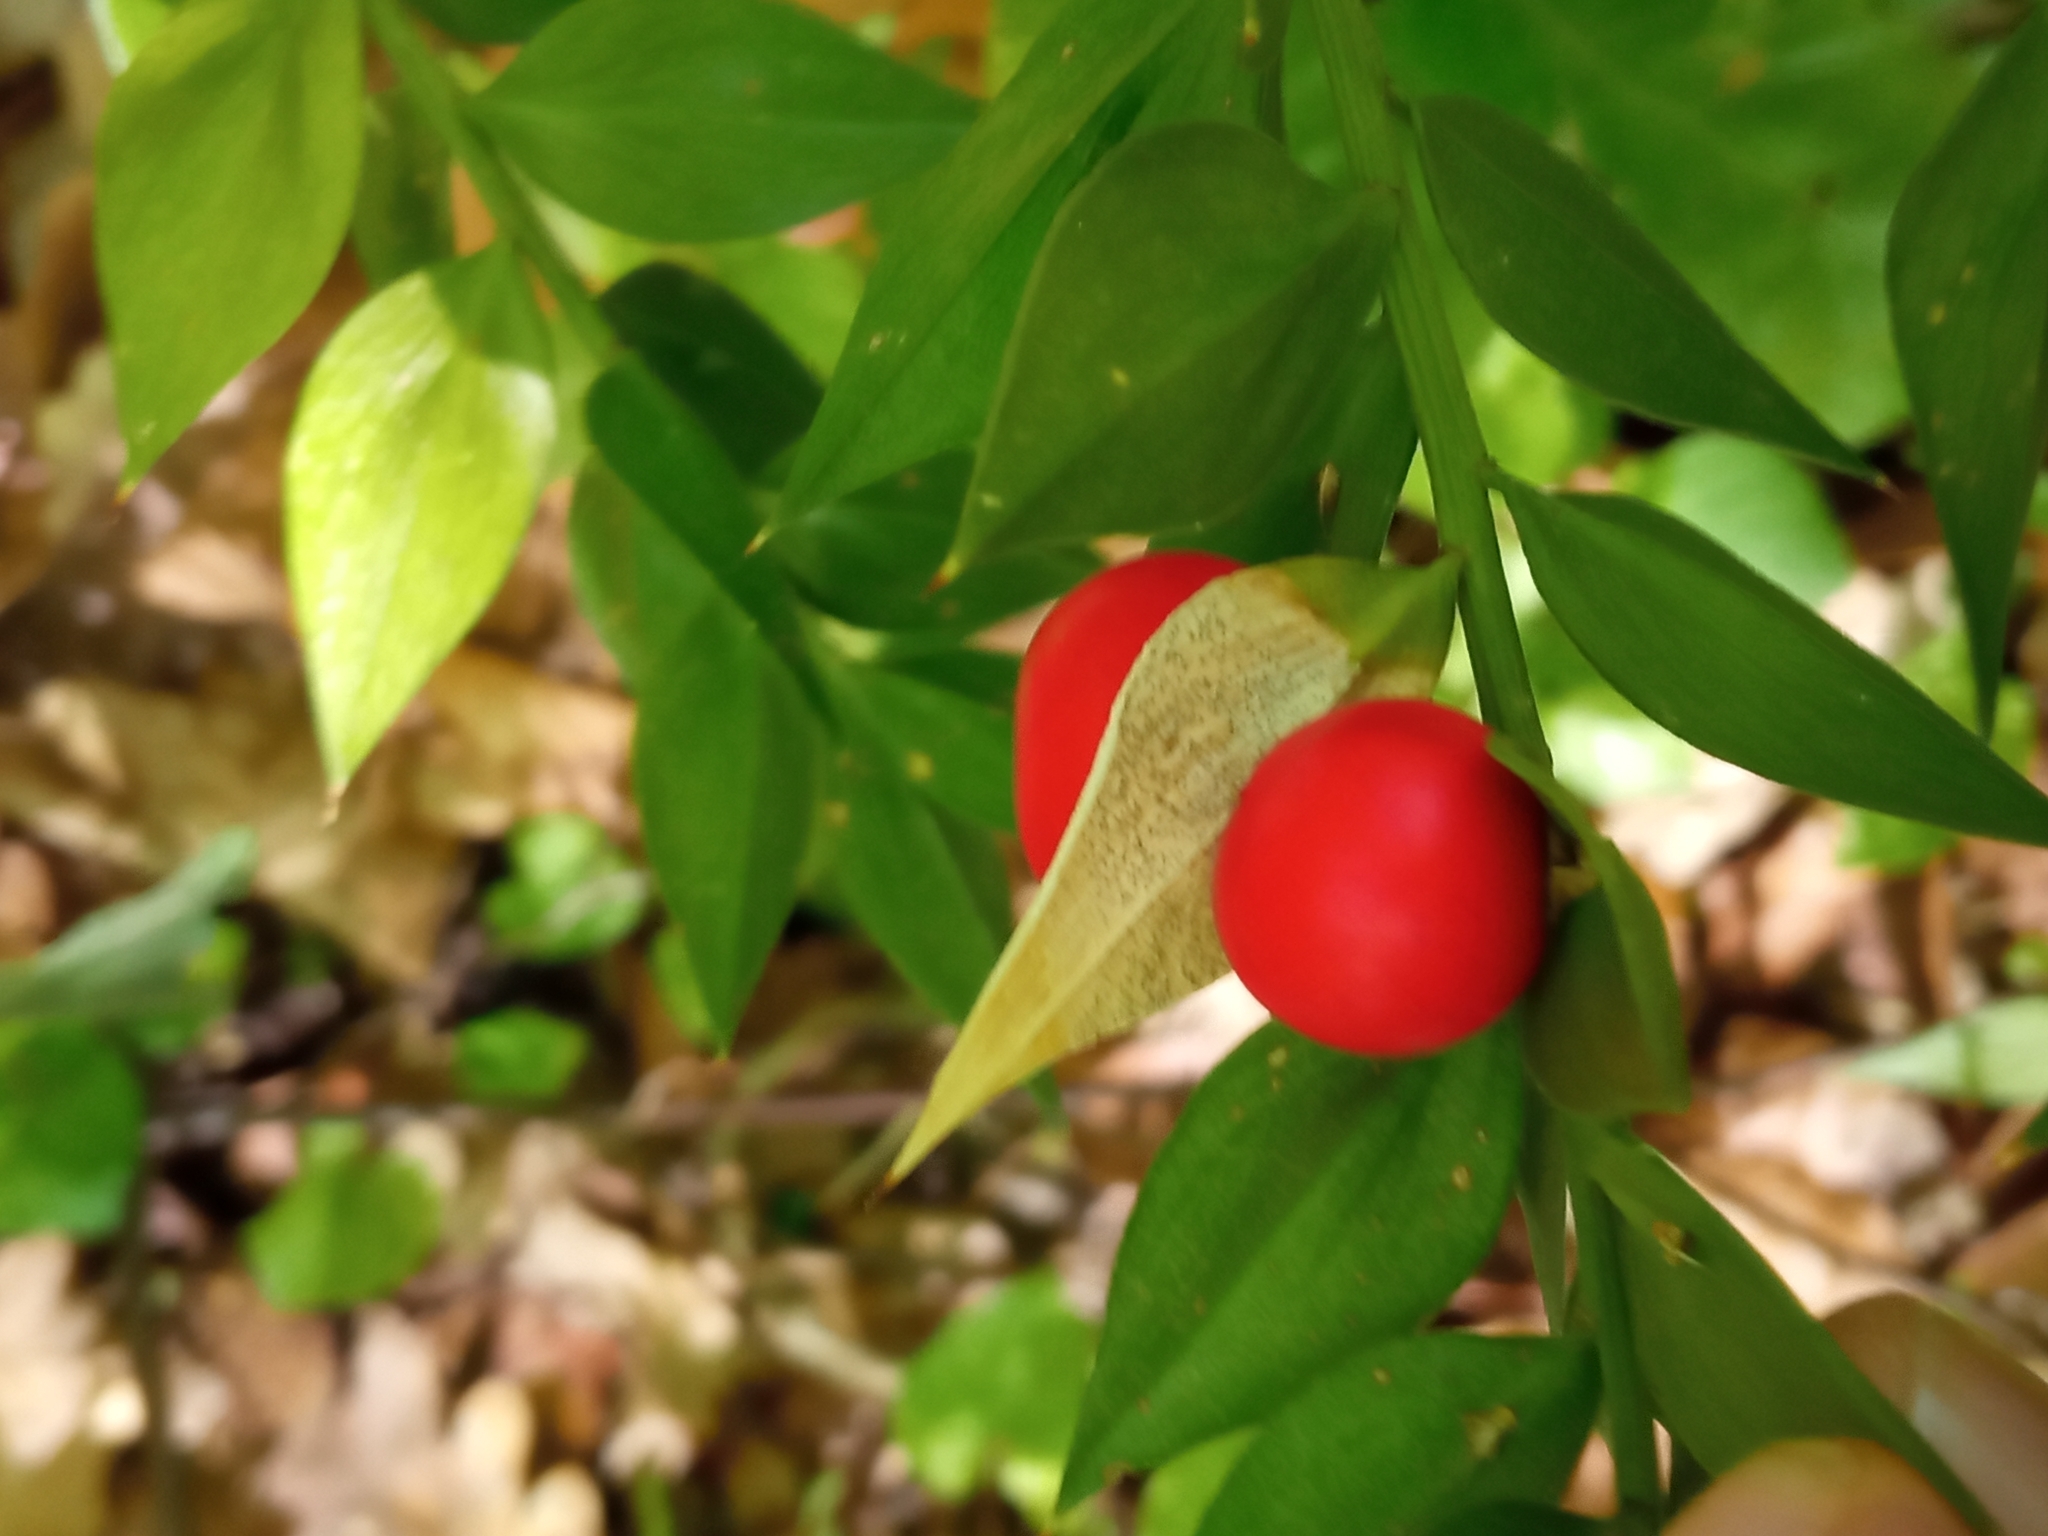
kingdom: Plantae
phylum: Tracheophyta
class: Liliopsida
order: Asparagales
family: Asparagaceae
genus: Ruscus
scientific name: Ruscus aculeatus
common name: Butcher's-broom
